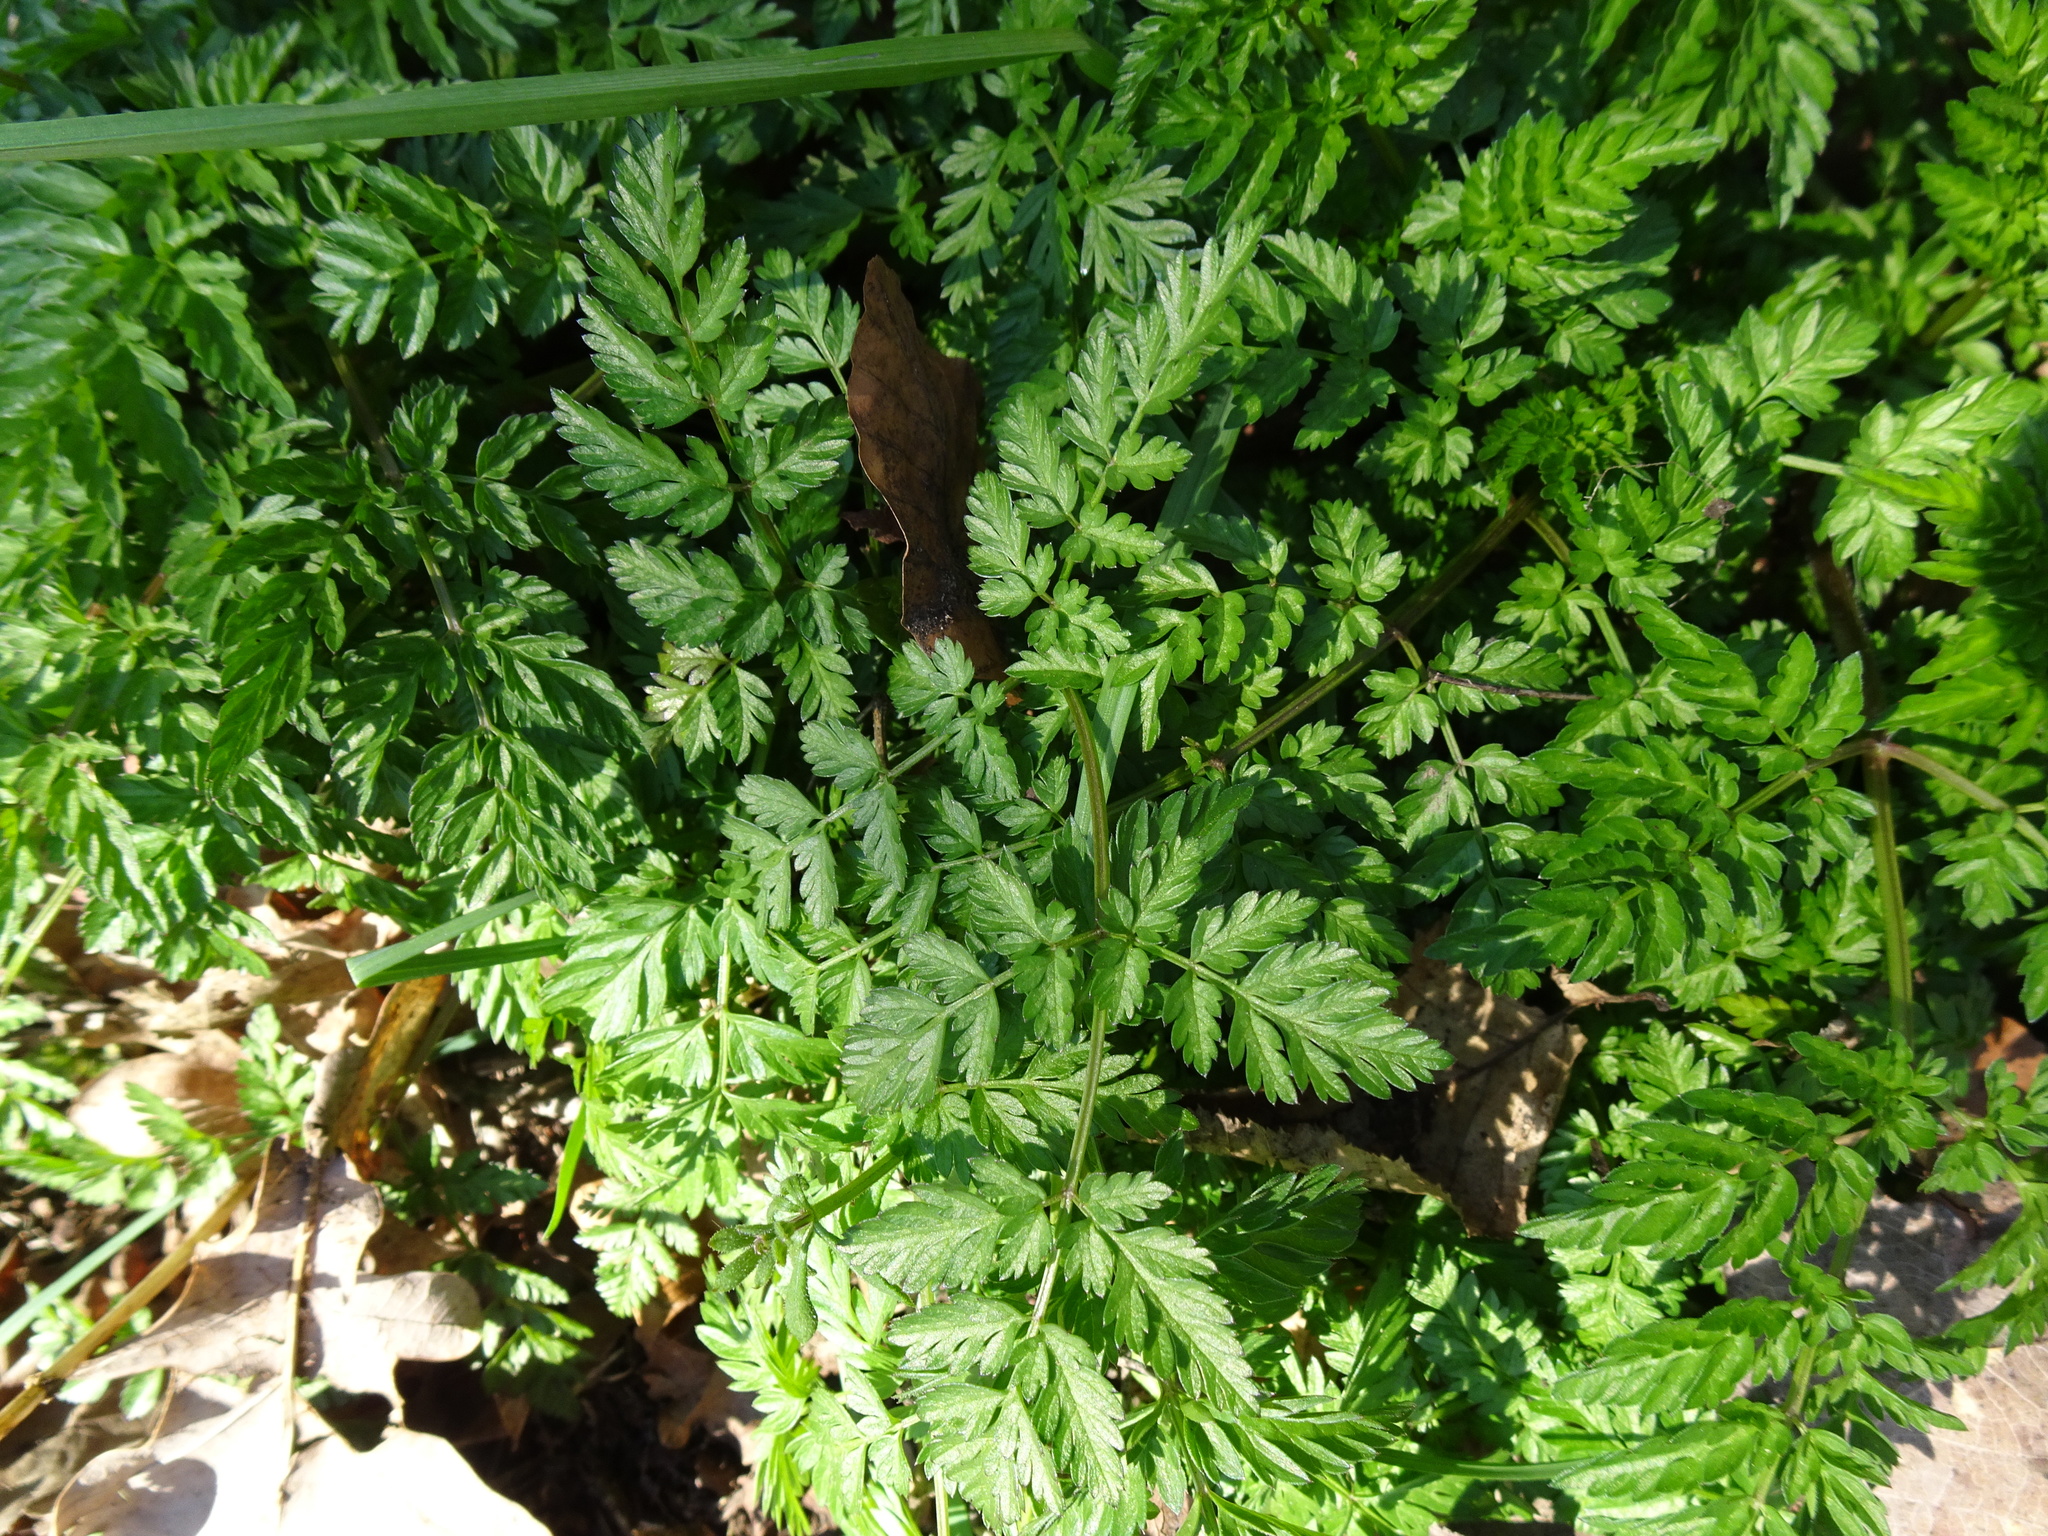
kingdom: Plantae
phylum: Tracheophyta
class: Magnoliopsida
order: Apiales
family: Apiaceae
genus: Anthriscus
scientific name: Anthriscus sylvestris
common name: Cow parsley
